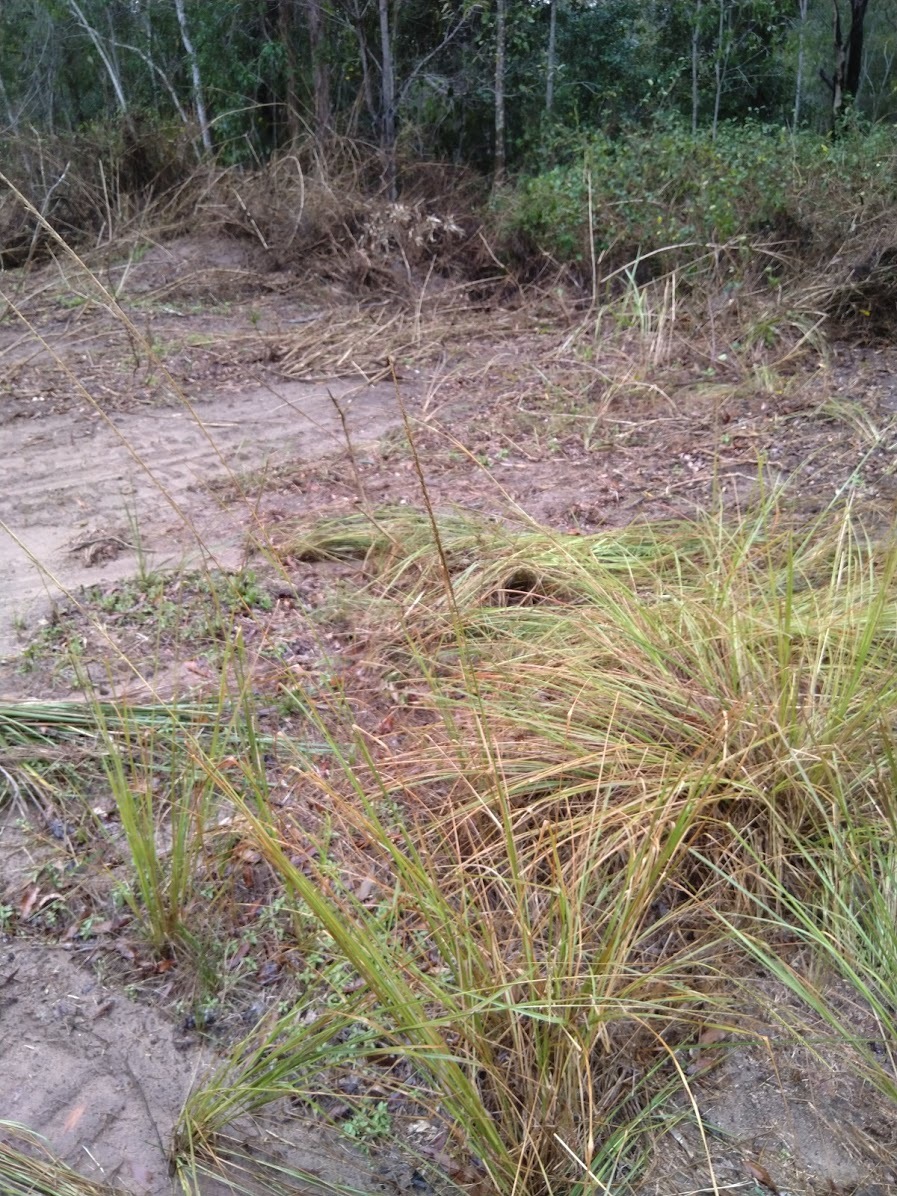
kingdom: Plantae
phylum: Tracheophyta
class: Liliopsida
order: Poales
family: Poaceae
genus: Sporobolus
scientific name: Sporobolus fertilis
